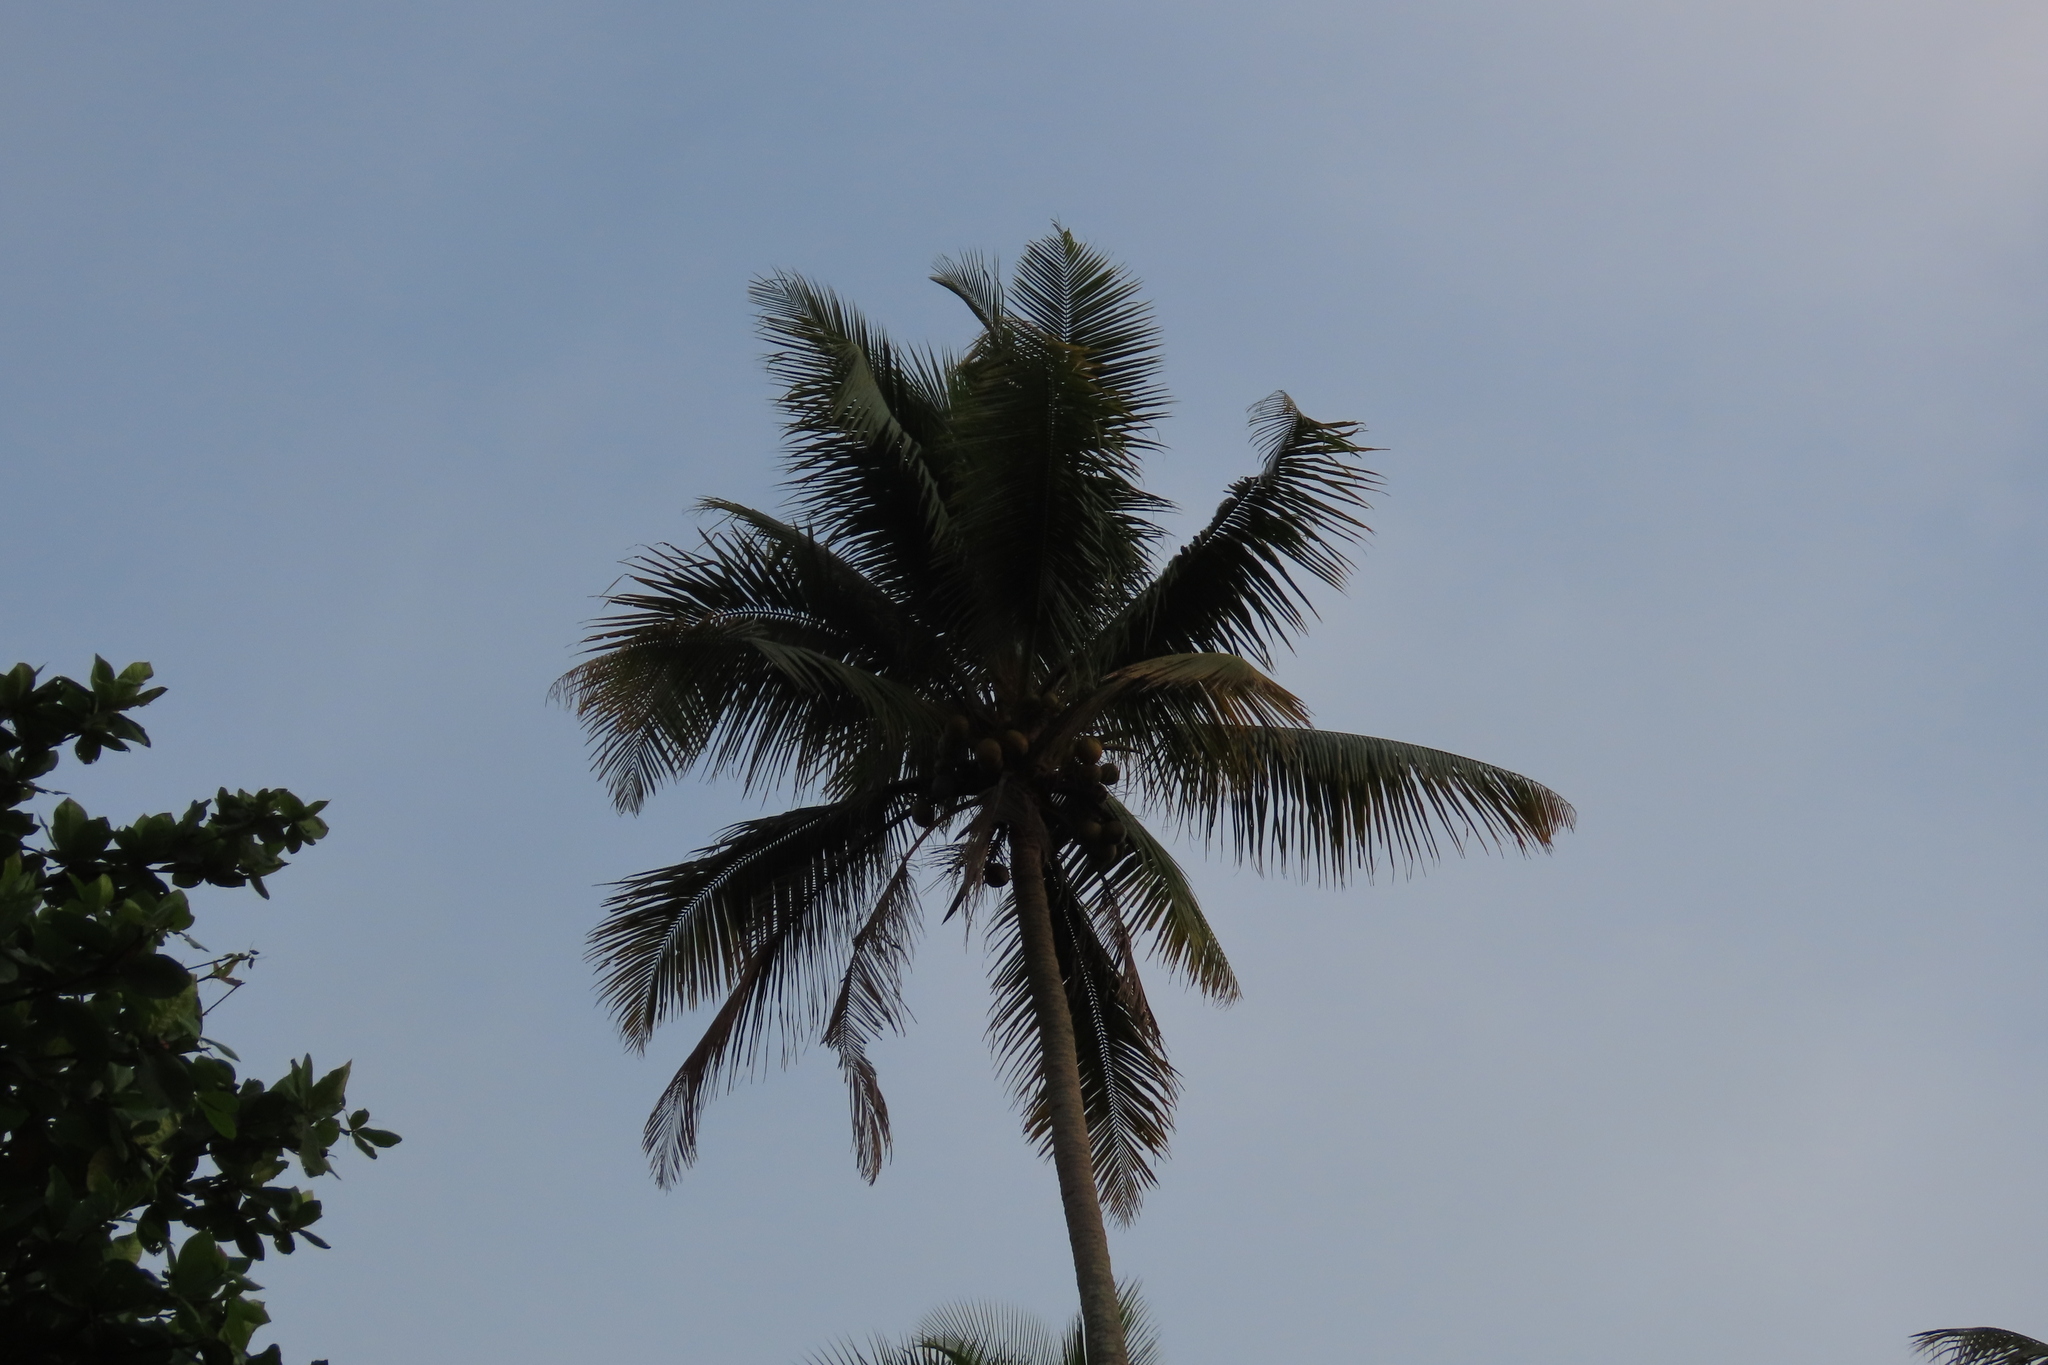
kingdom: Plantae
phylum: Tracheophyta
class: Liliopsida
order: Arecales
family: Arecaceae
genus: Cocos
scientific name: Cocos nucifera
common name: Coconut palm
